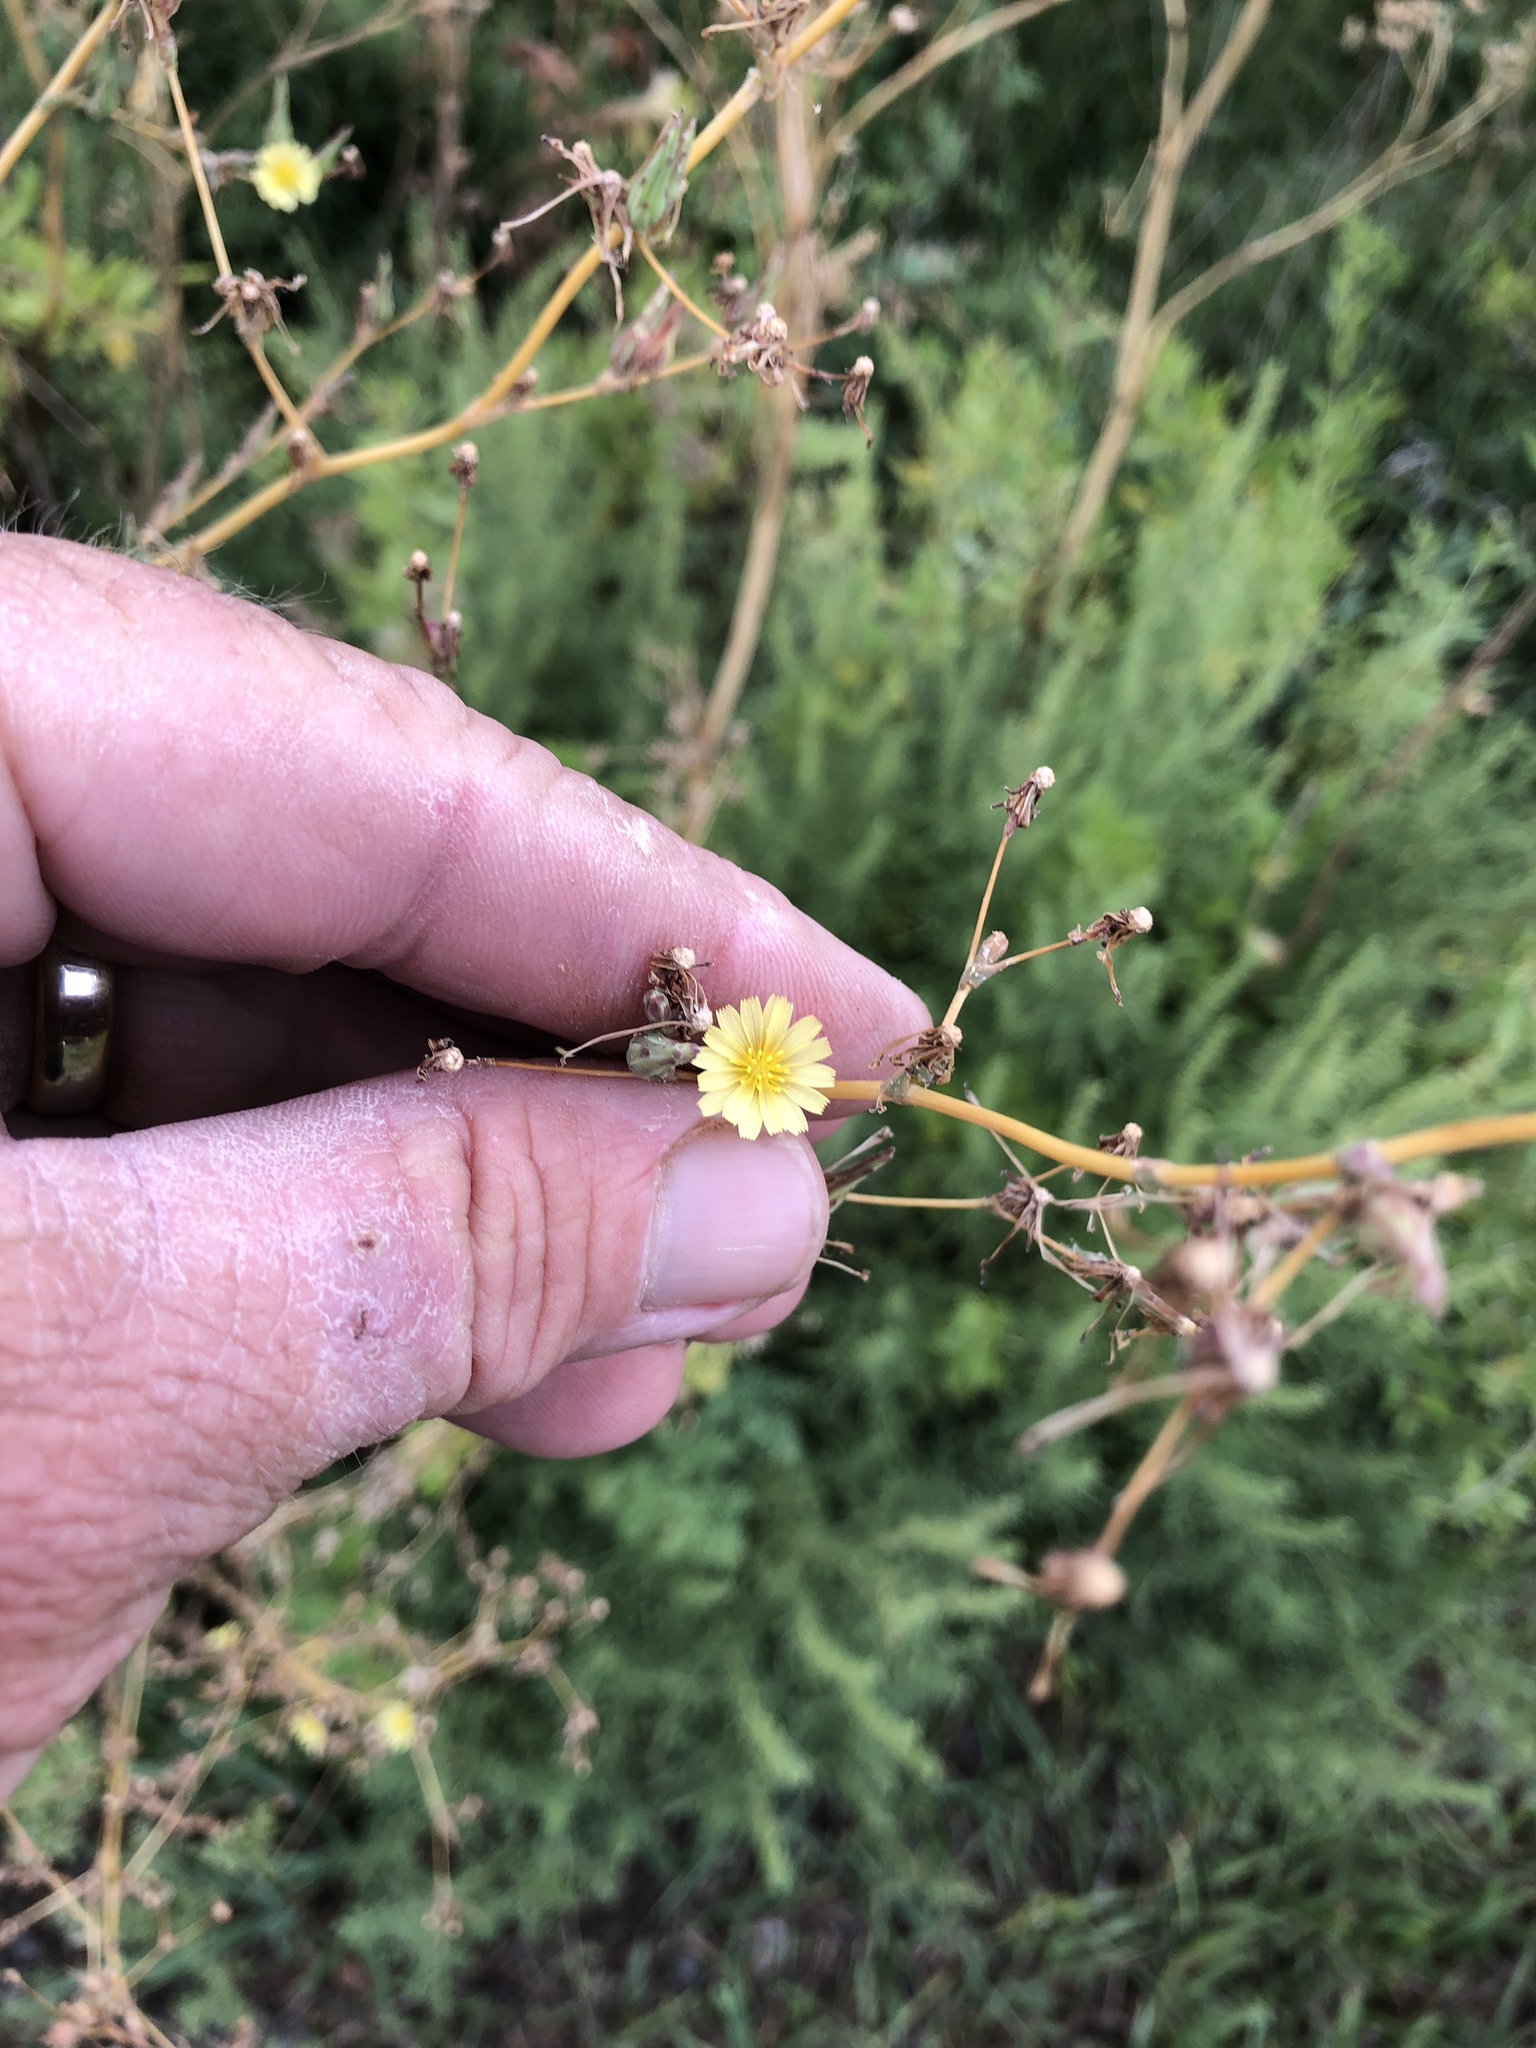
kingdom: Plantae
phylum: Tracheophyta
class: Magnoliopsida
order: Myrtales
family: Onagraceae
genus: Oenothera
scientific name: Oenothera curtiflora
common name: Velvetweed
